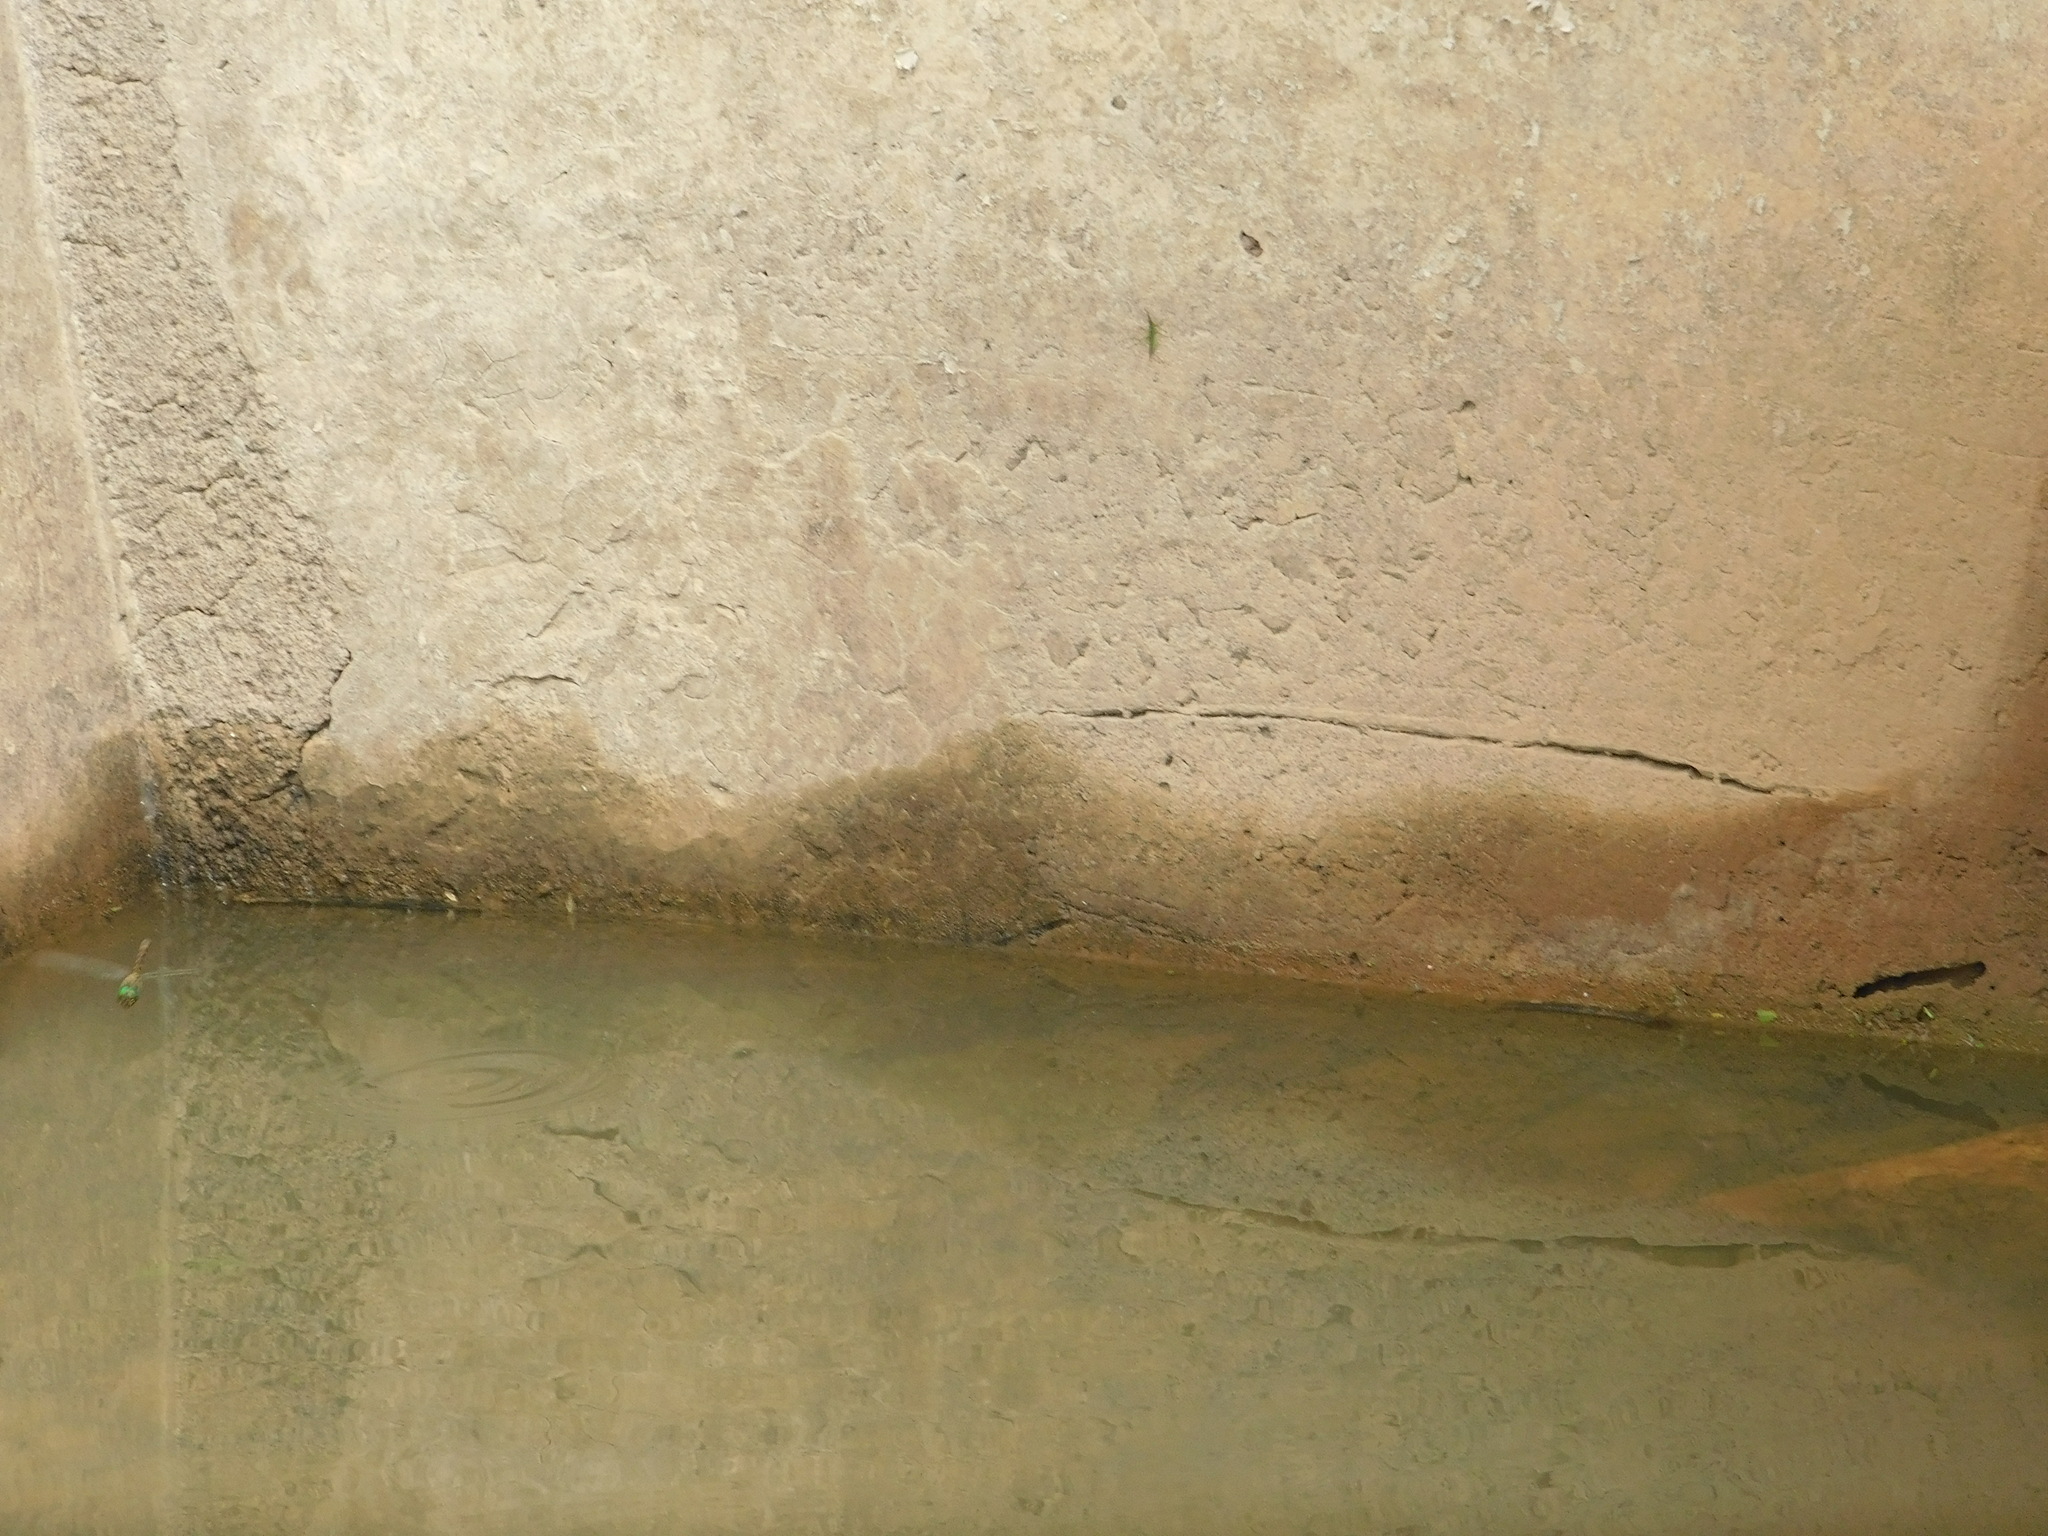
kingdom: Animalia
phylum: Arthropoda
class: Insecta
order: Odonata
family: Gomphidae
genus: Ictinogomphus
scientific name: Ictinogomphus decoratus
